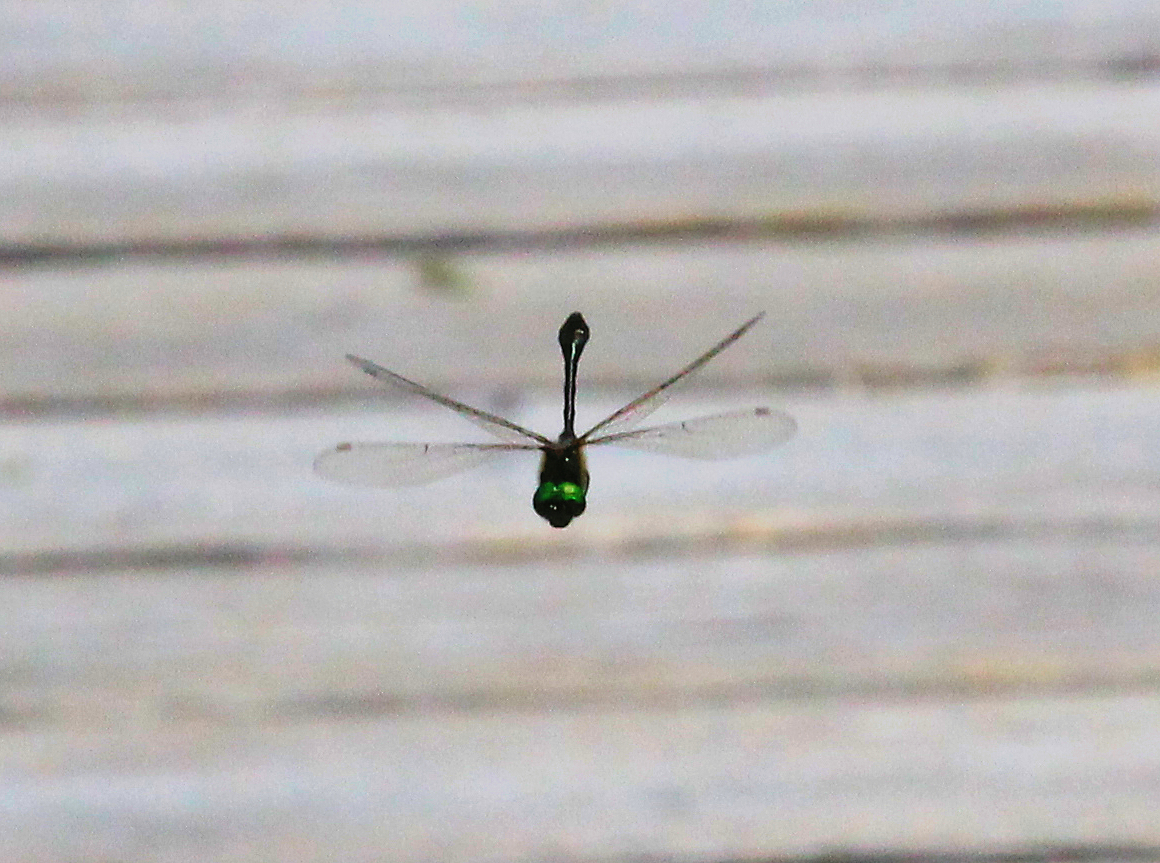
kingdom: Animalia
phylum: Arthropoda
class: Insecta
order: Odonata
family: Corduliidae
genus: Dorocordulia
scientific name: Dorocordulia libera
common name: Racket-tailed emerald
